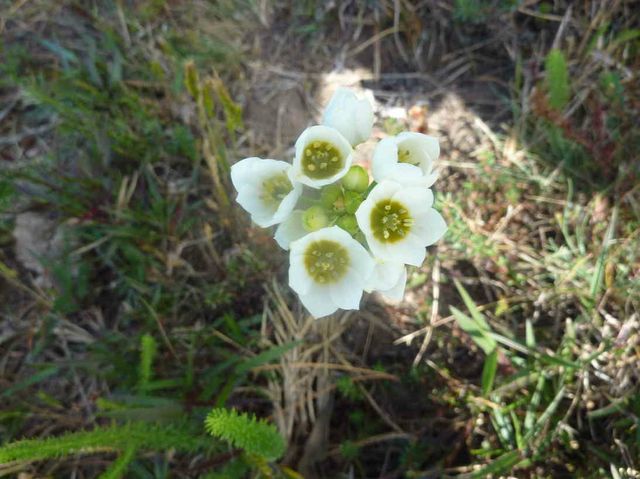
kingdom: Plantae
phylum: Tracheophyta
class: Liliopsida
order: Asparagales
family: Asparagaceae
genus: Ornithogalum
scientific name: Ornithogalum dubium
